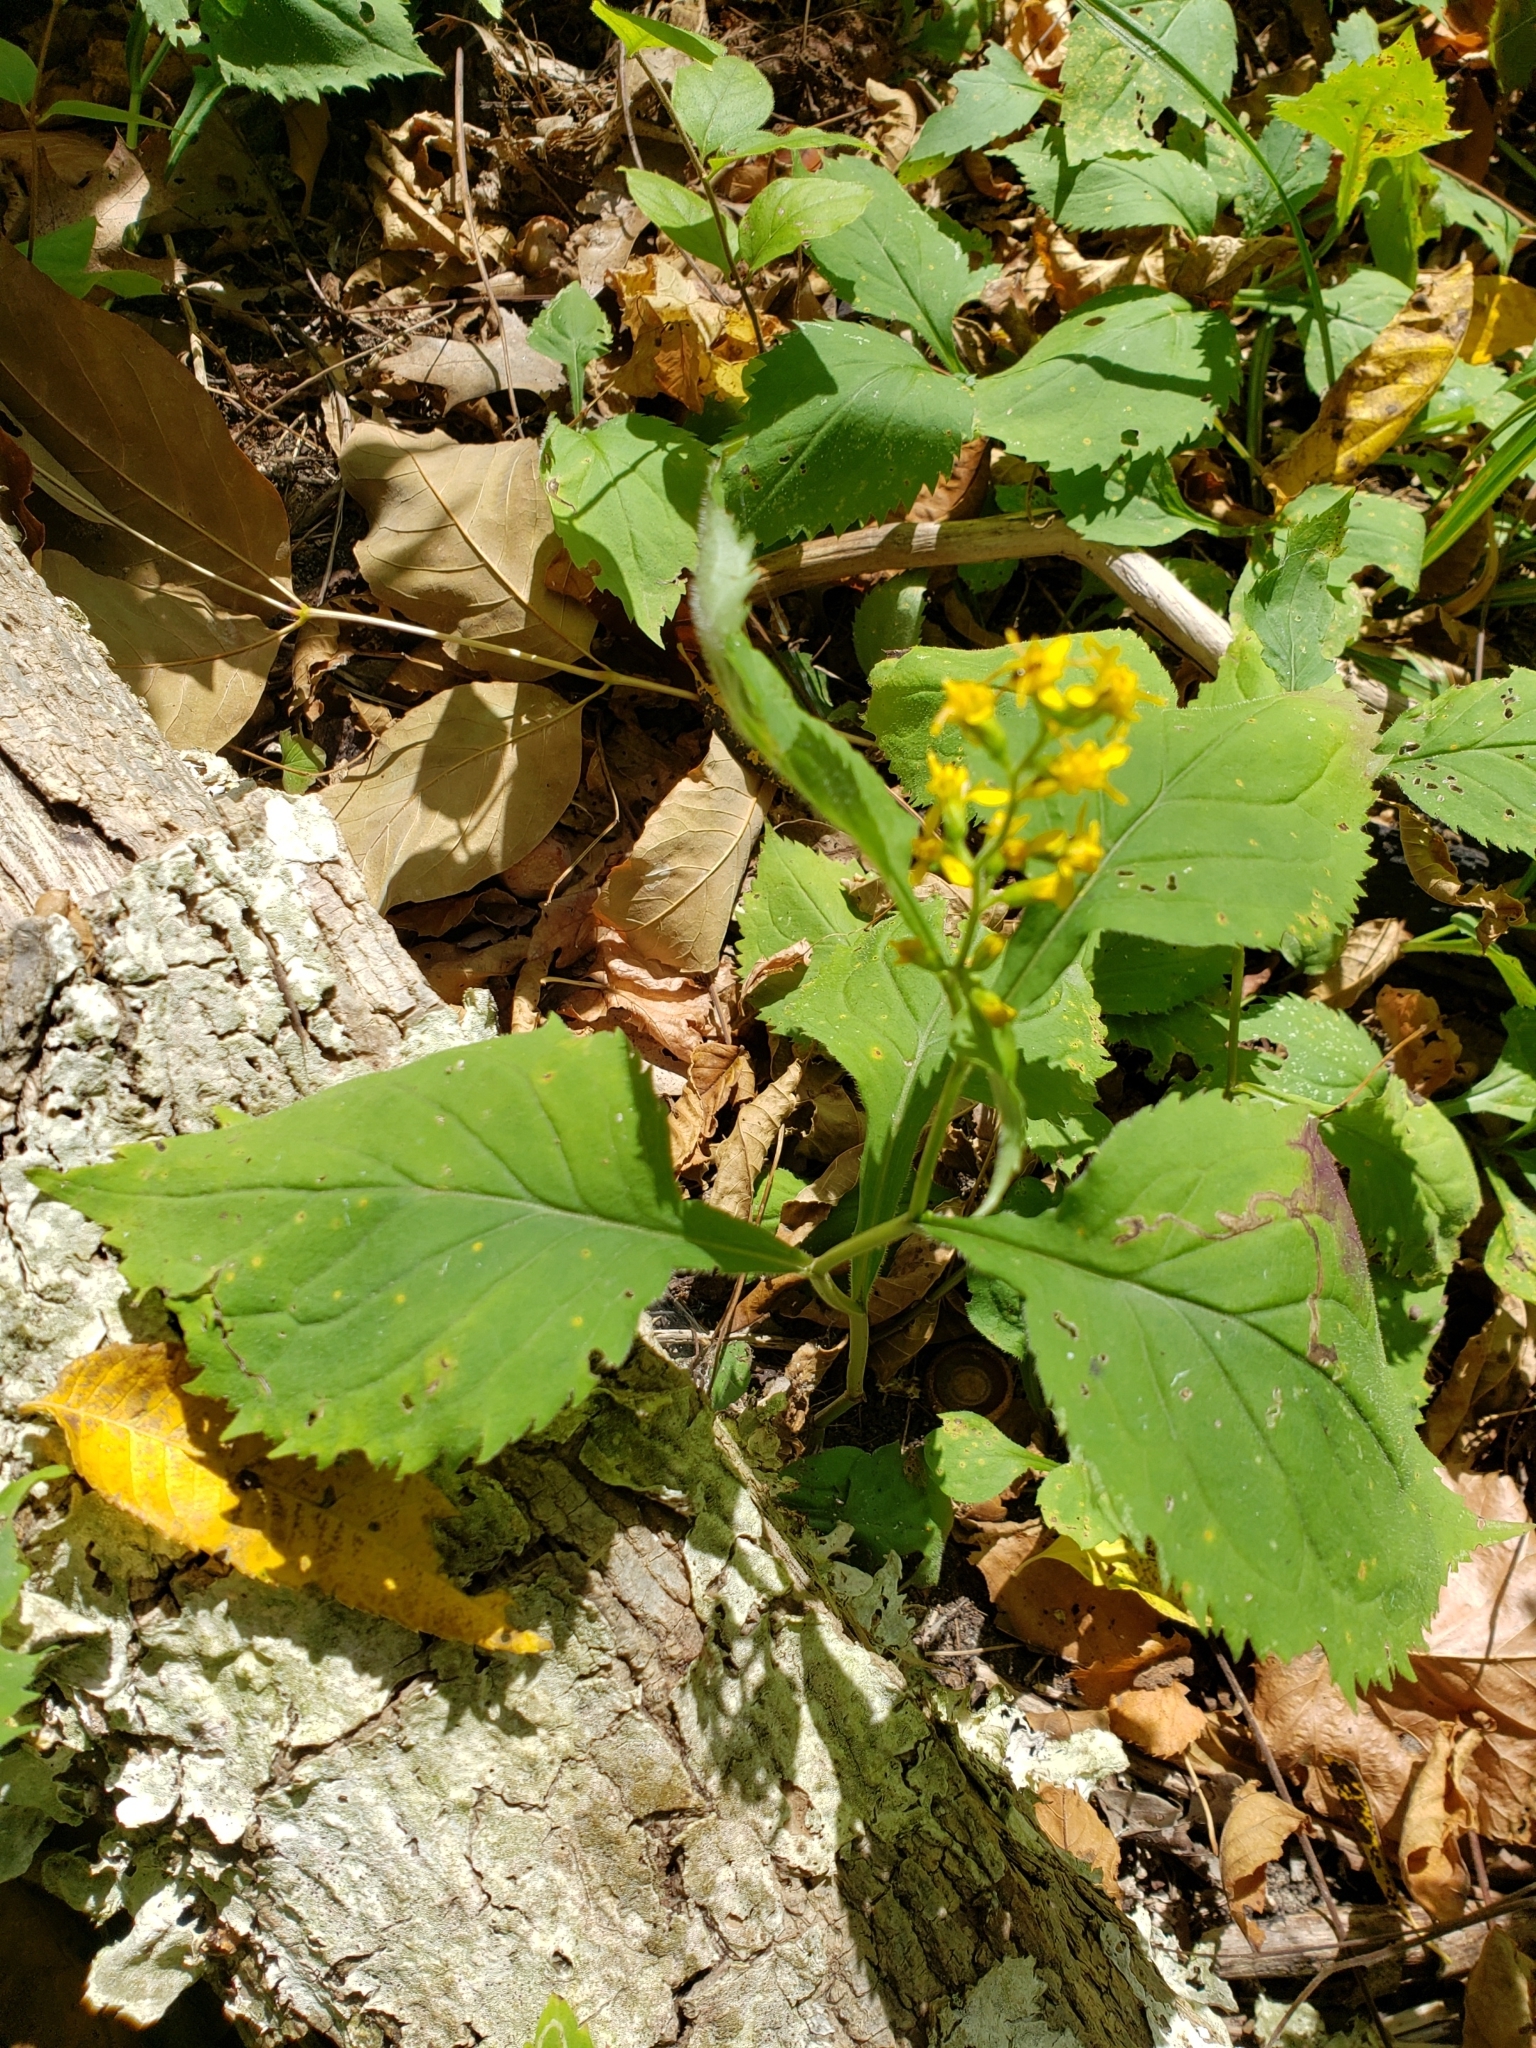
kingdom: Plantae
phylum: Tracheophyta
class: Magnoliopsida
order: Asterales
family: Asteraceae
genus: Solidago
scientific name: Solidago flexicaulis
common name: Zig-zag goldenrod
